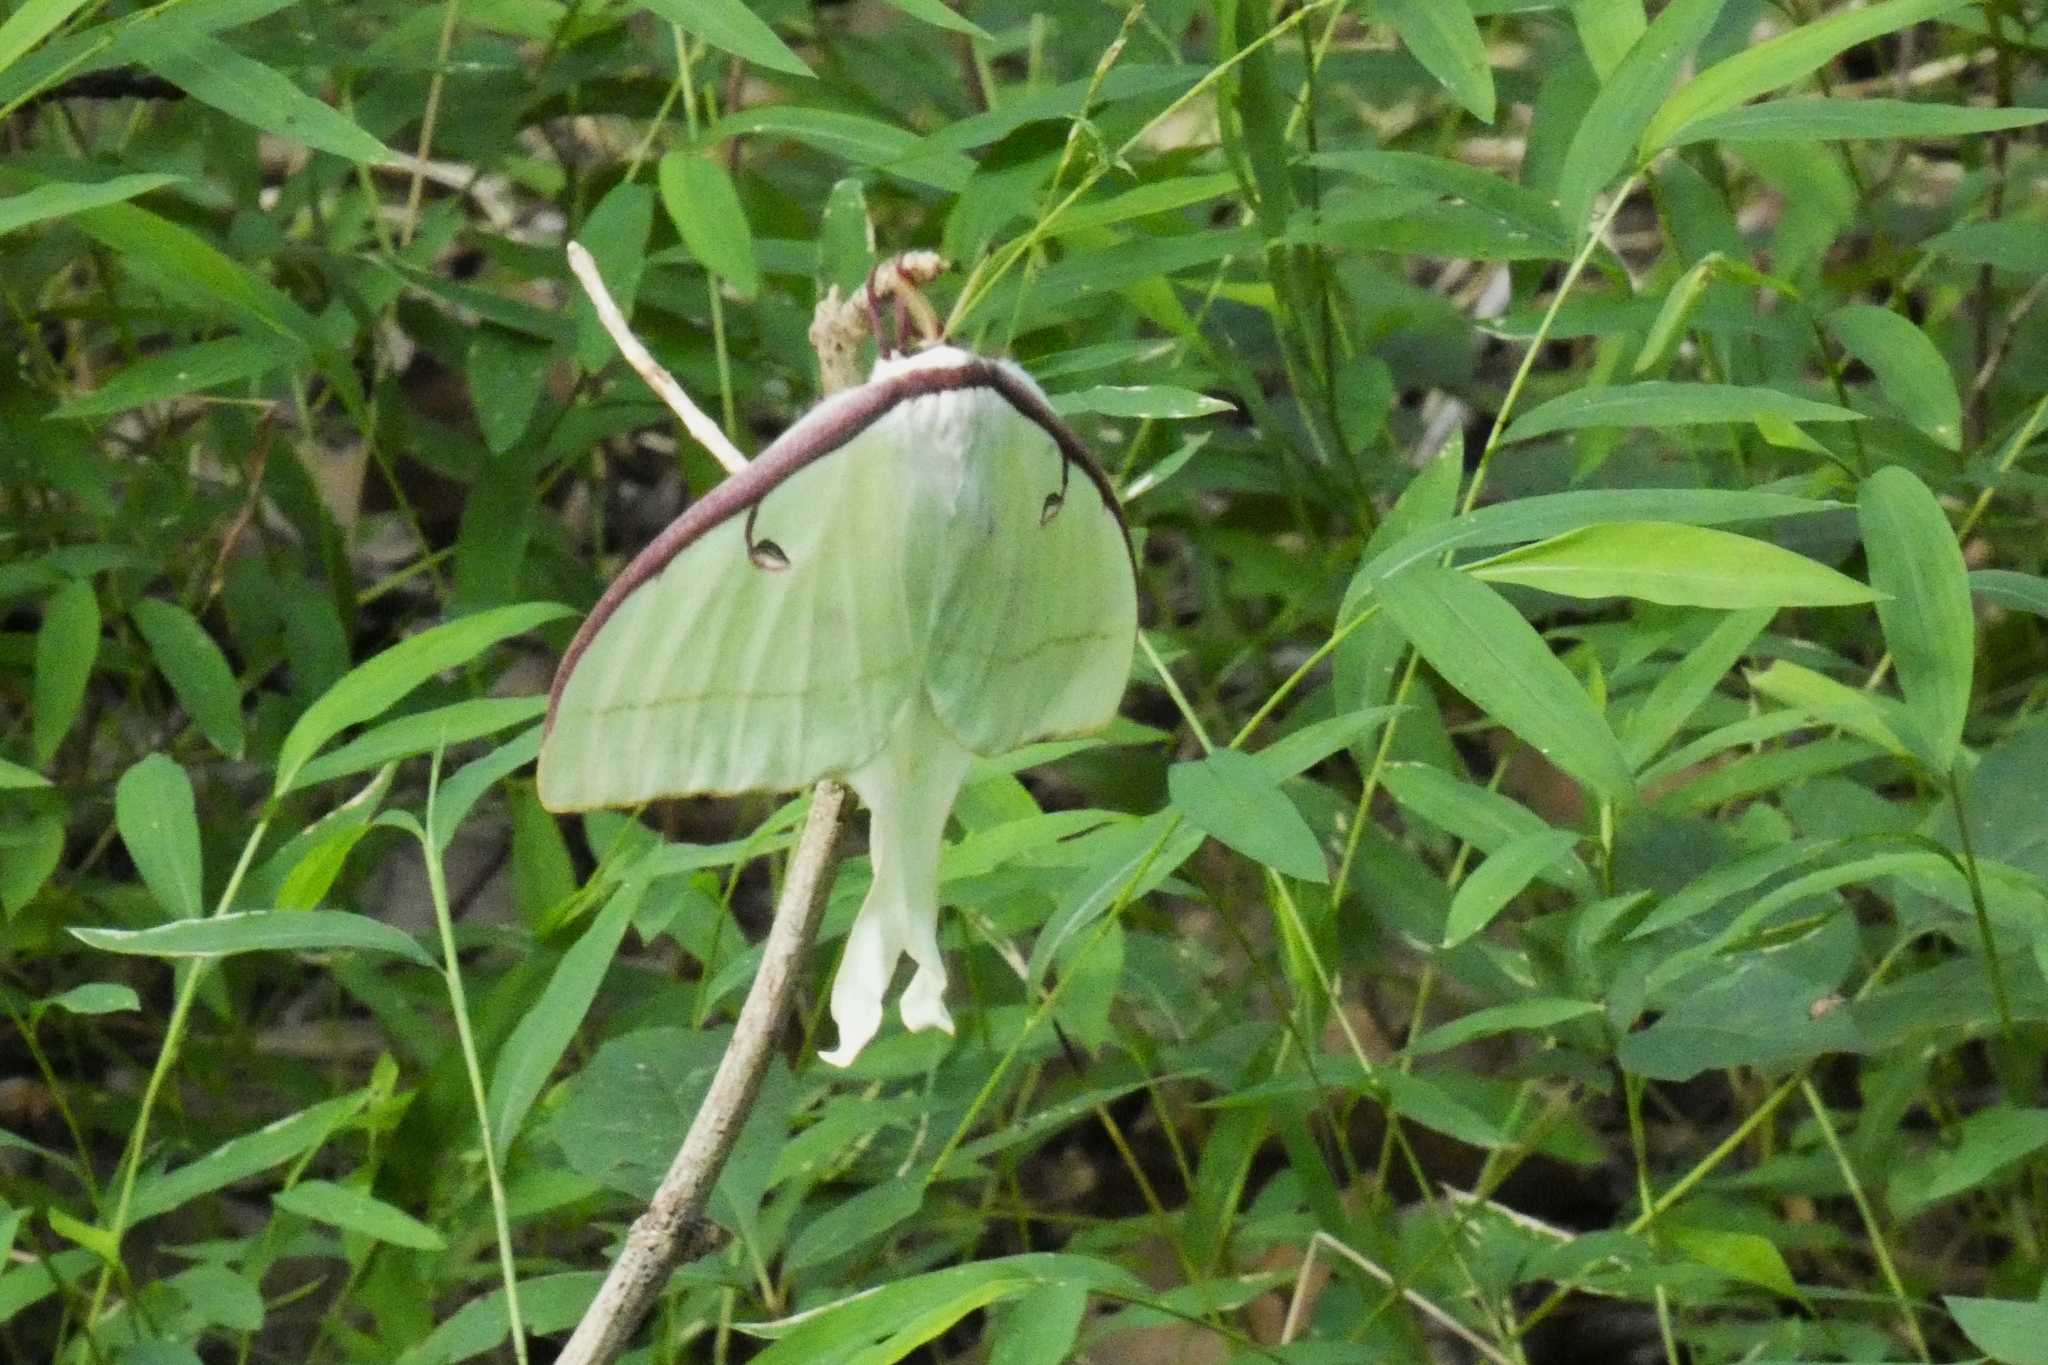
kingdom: Animalia
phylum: Arthropoda
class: Insecta
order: Lepidoptera
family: Saturniidae
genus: Actias
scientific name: Actias luna
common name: Luna moth
